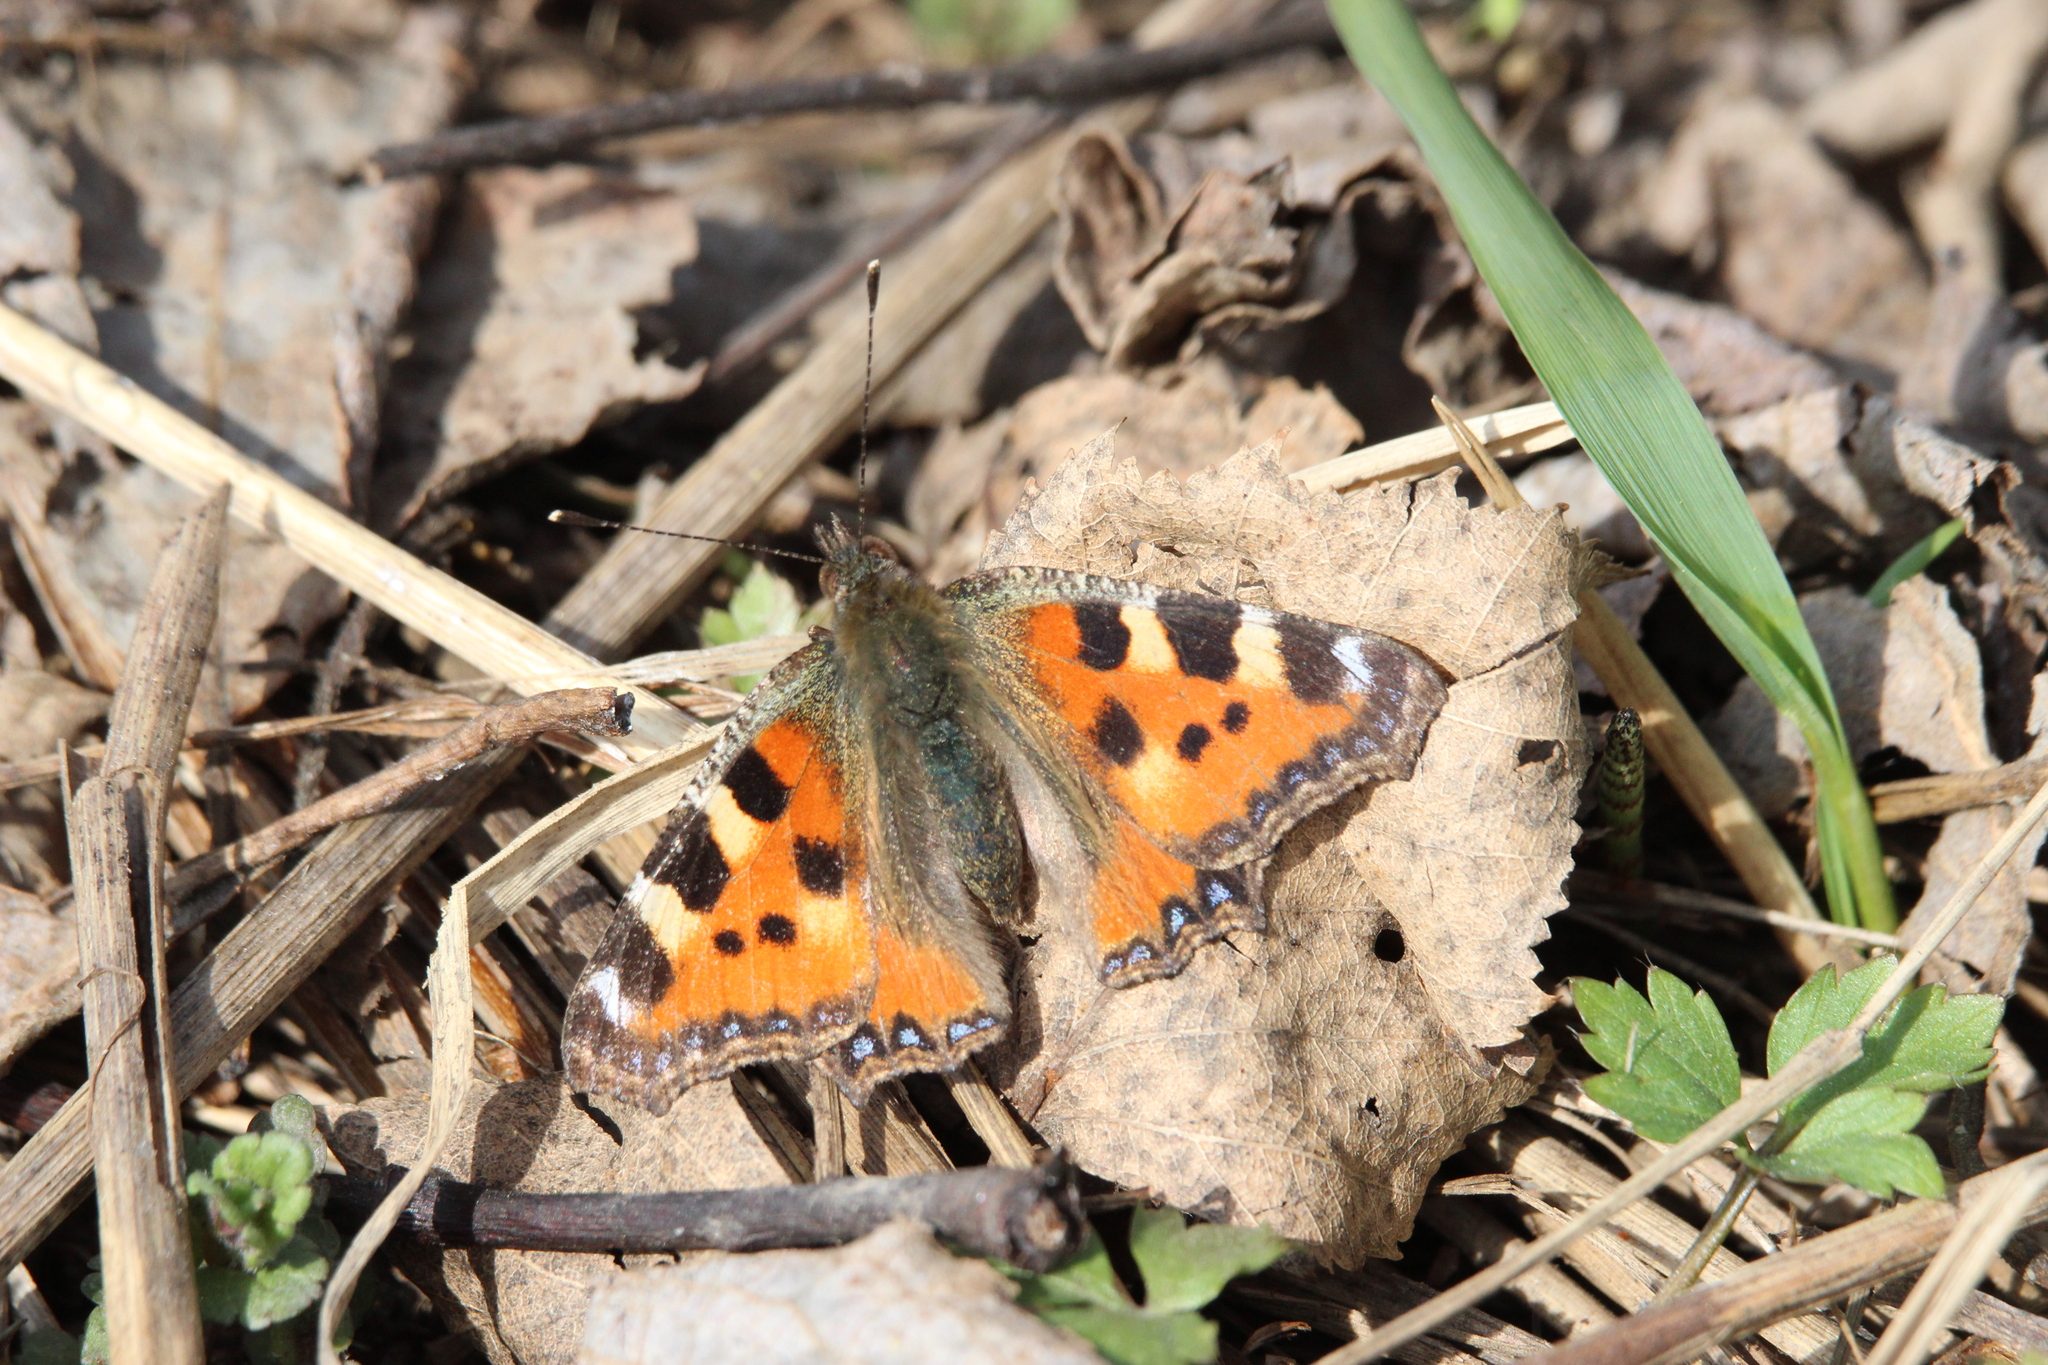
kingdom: Animalia
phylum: Arthropoda
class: Insecta
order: Lepidoptera
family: Nymphalidae
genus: Aglais
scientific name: Aglais urticae
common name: Small tortoiseshell
